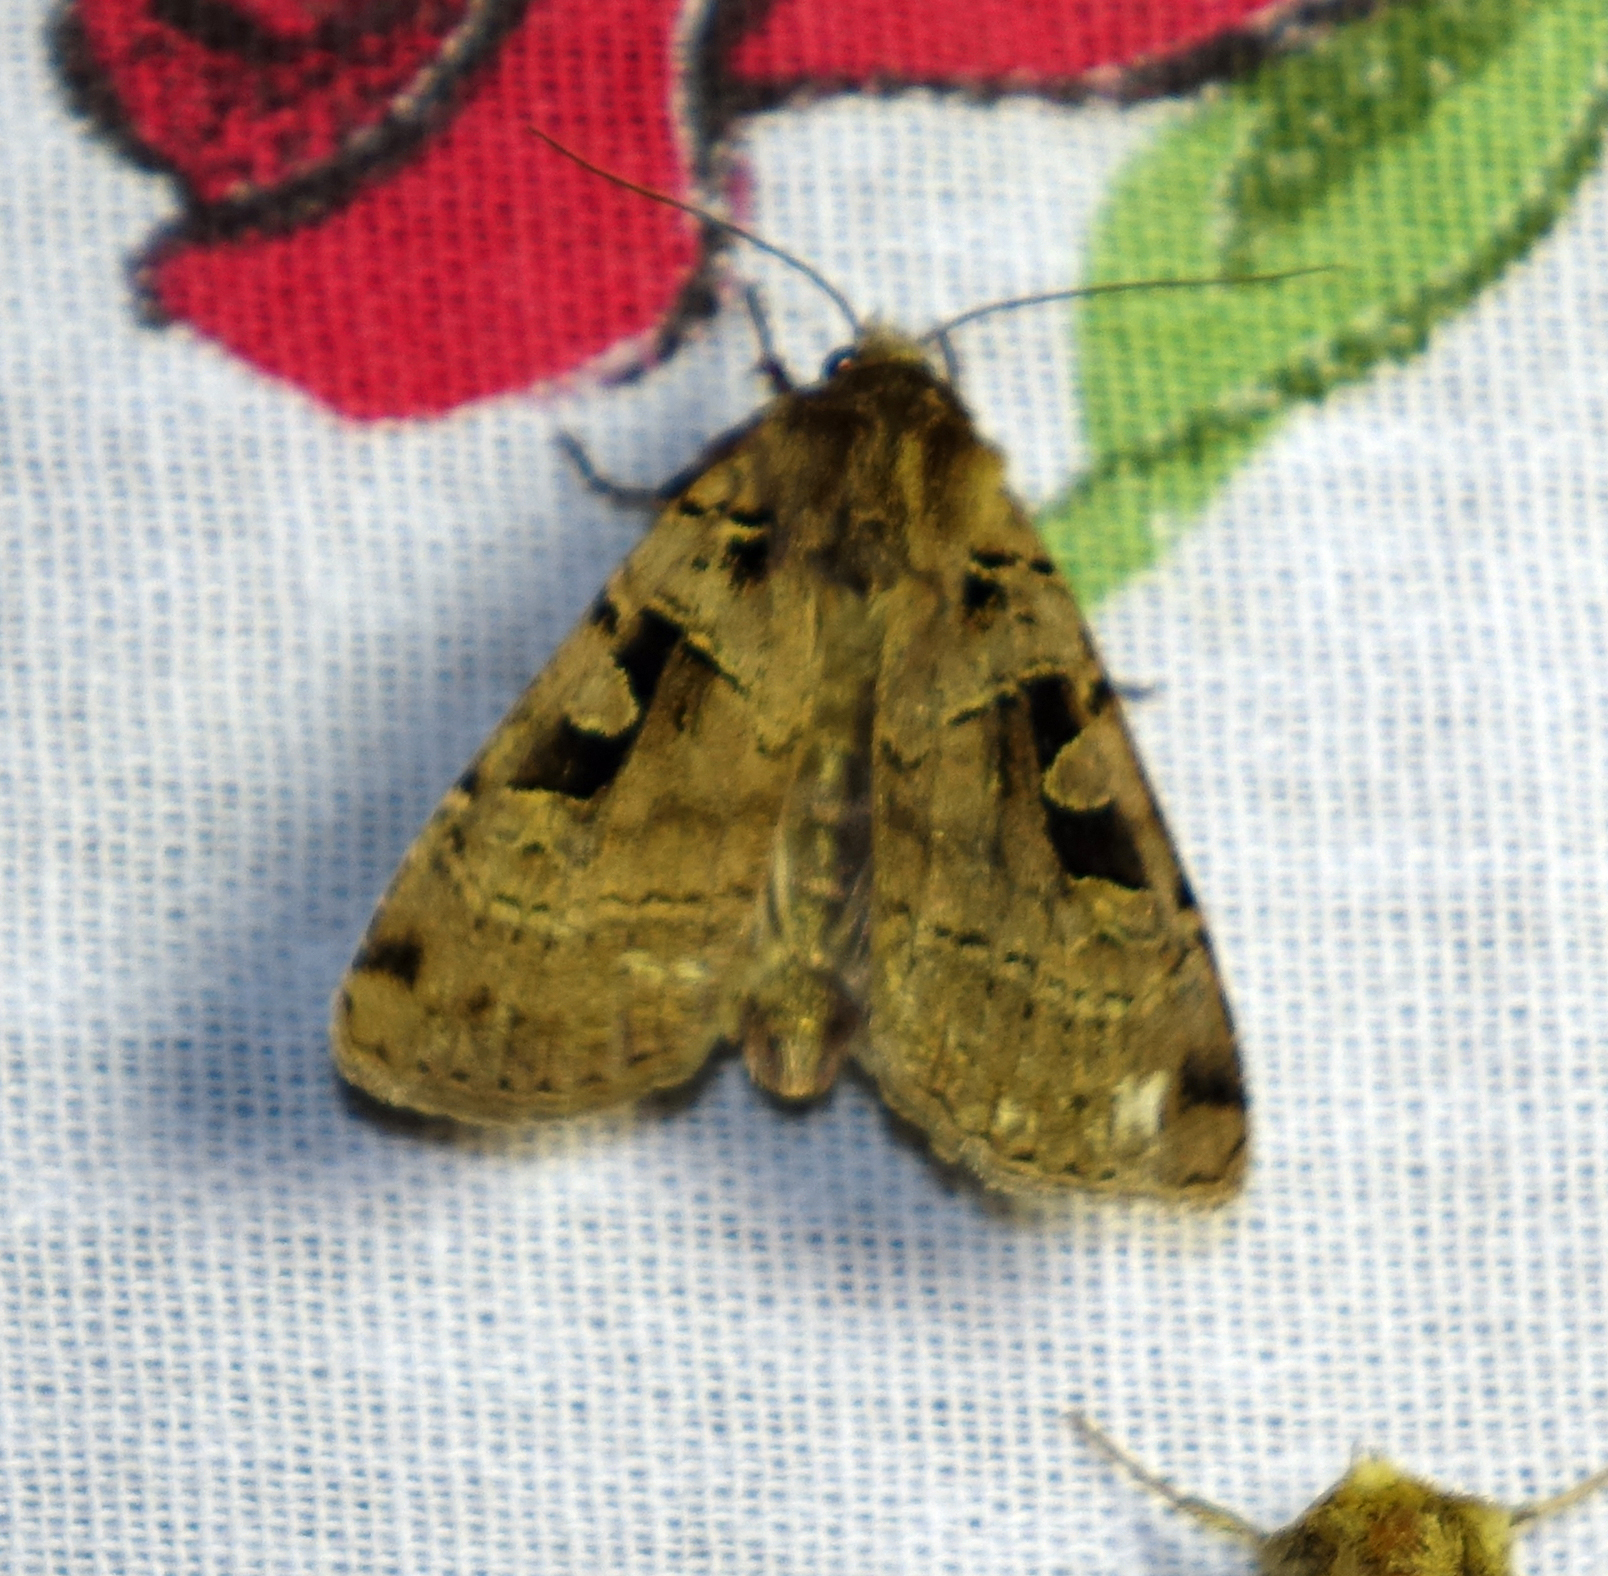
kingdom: Animalia
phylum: Arthropoda
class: Insecta
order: Lepidoptera
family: Noctuidae
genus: Xestia
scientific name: Xestia triangulum
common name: Double square-spot
